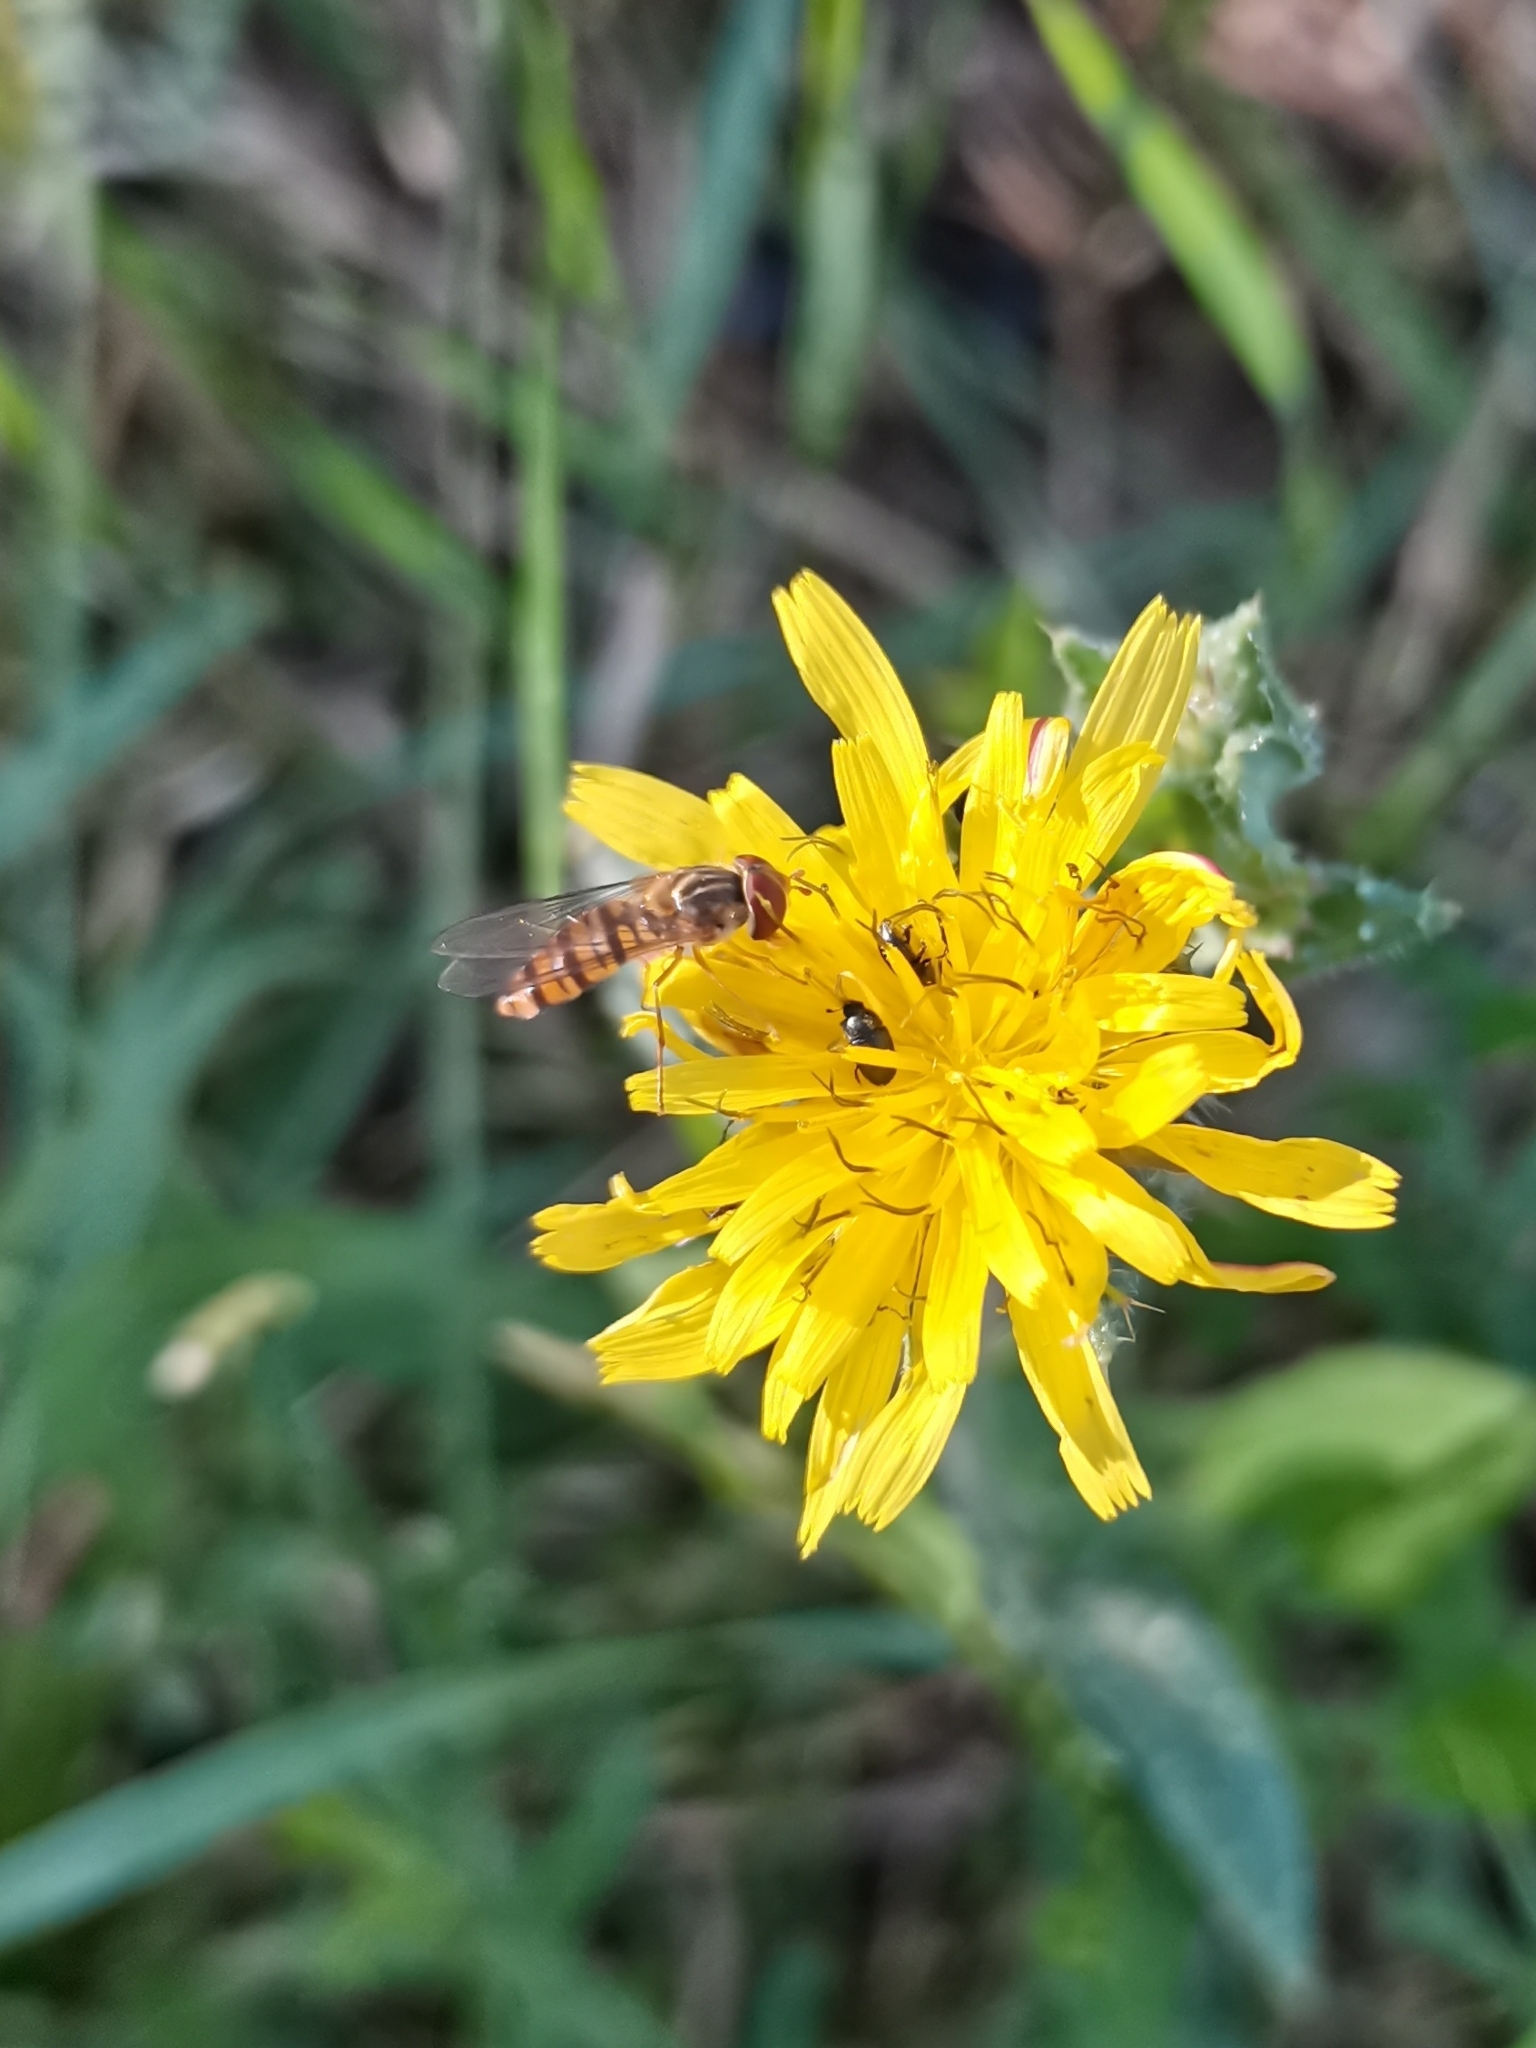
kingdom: Animalia
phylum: Arthropoda
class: Insecta
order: Diptera
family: Syrphidae
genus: Episyrphus
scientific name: Episyrphus balteatus
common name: Marmalade hoverfly
